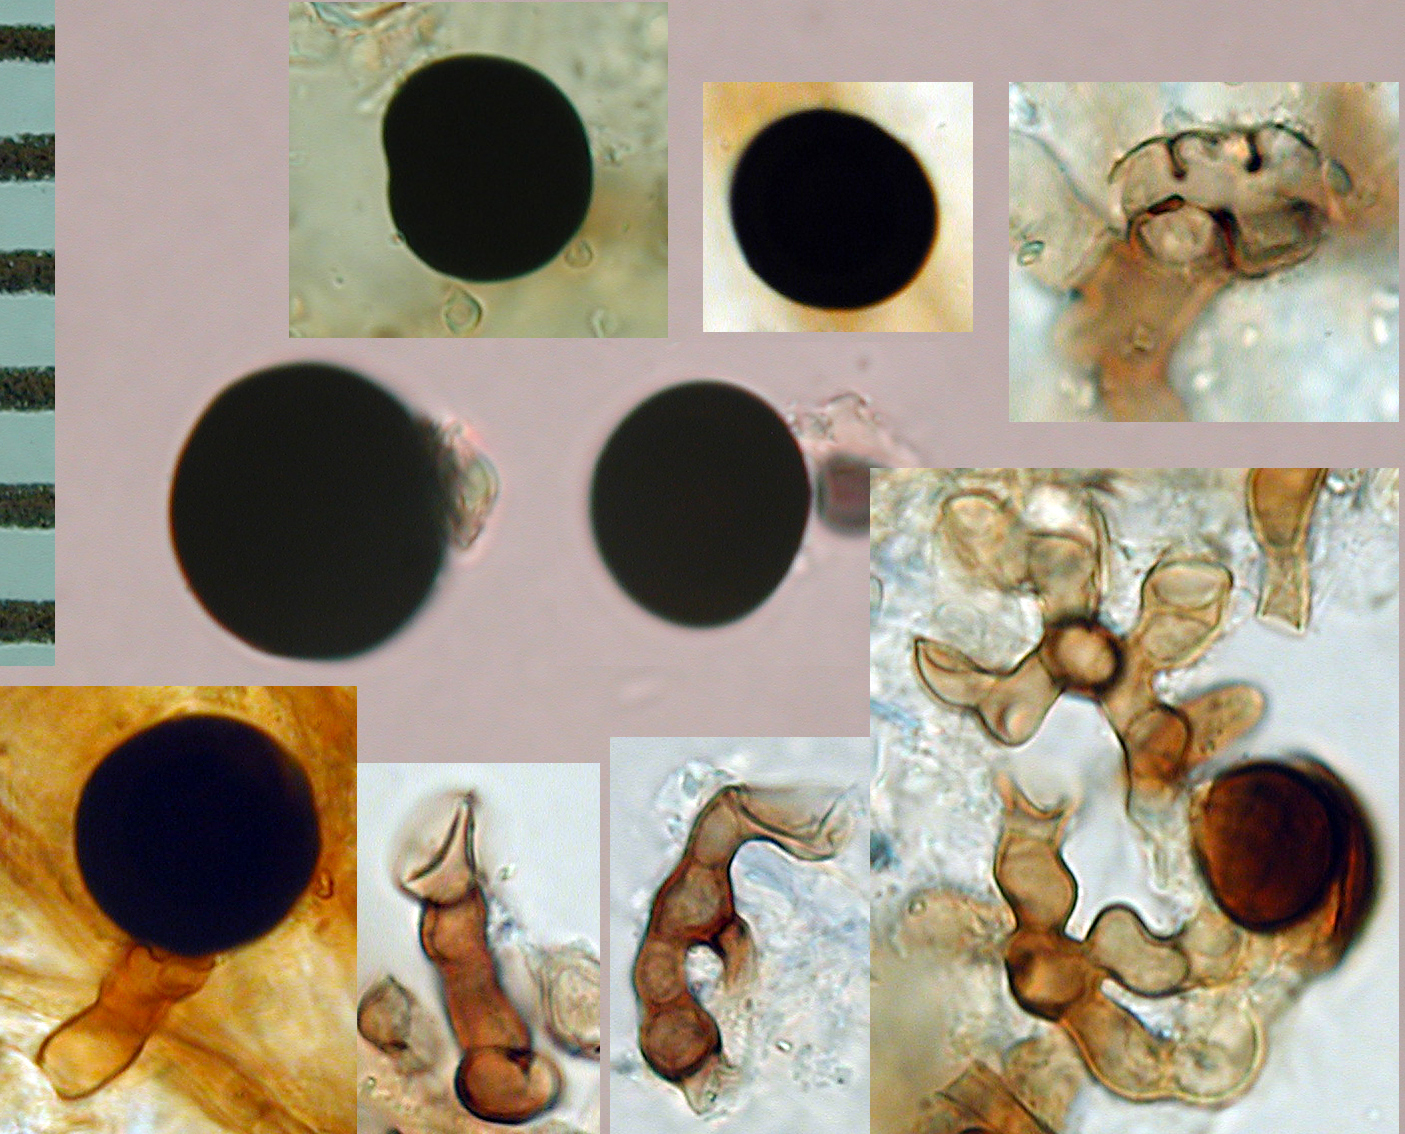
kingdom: Fungi
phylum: Ascomycota
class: Sordariomycetes
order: Trichosphaeriales
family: Trichosphaeriaceae
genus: Nigrospora
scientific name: Nigrospora sacchari
